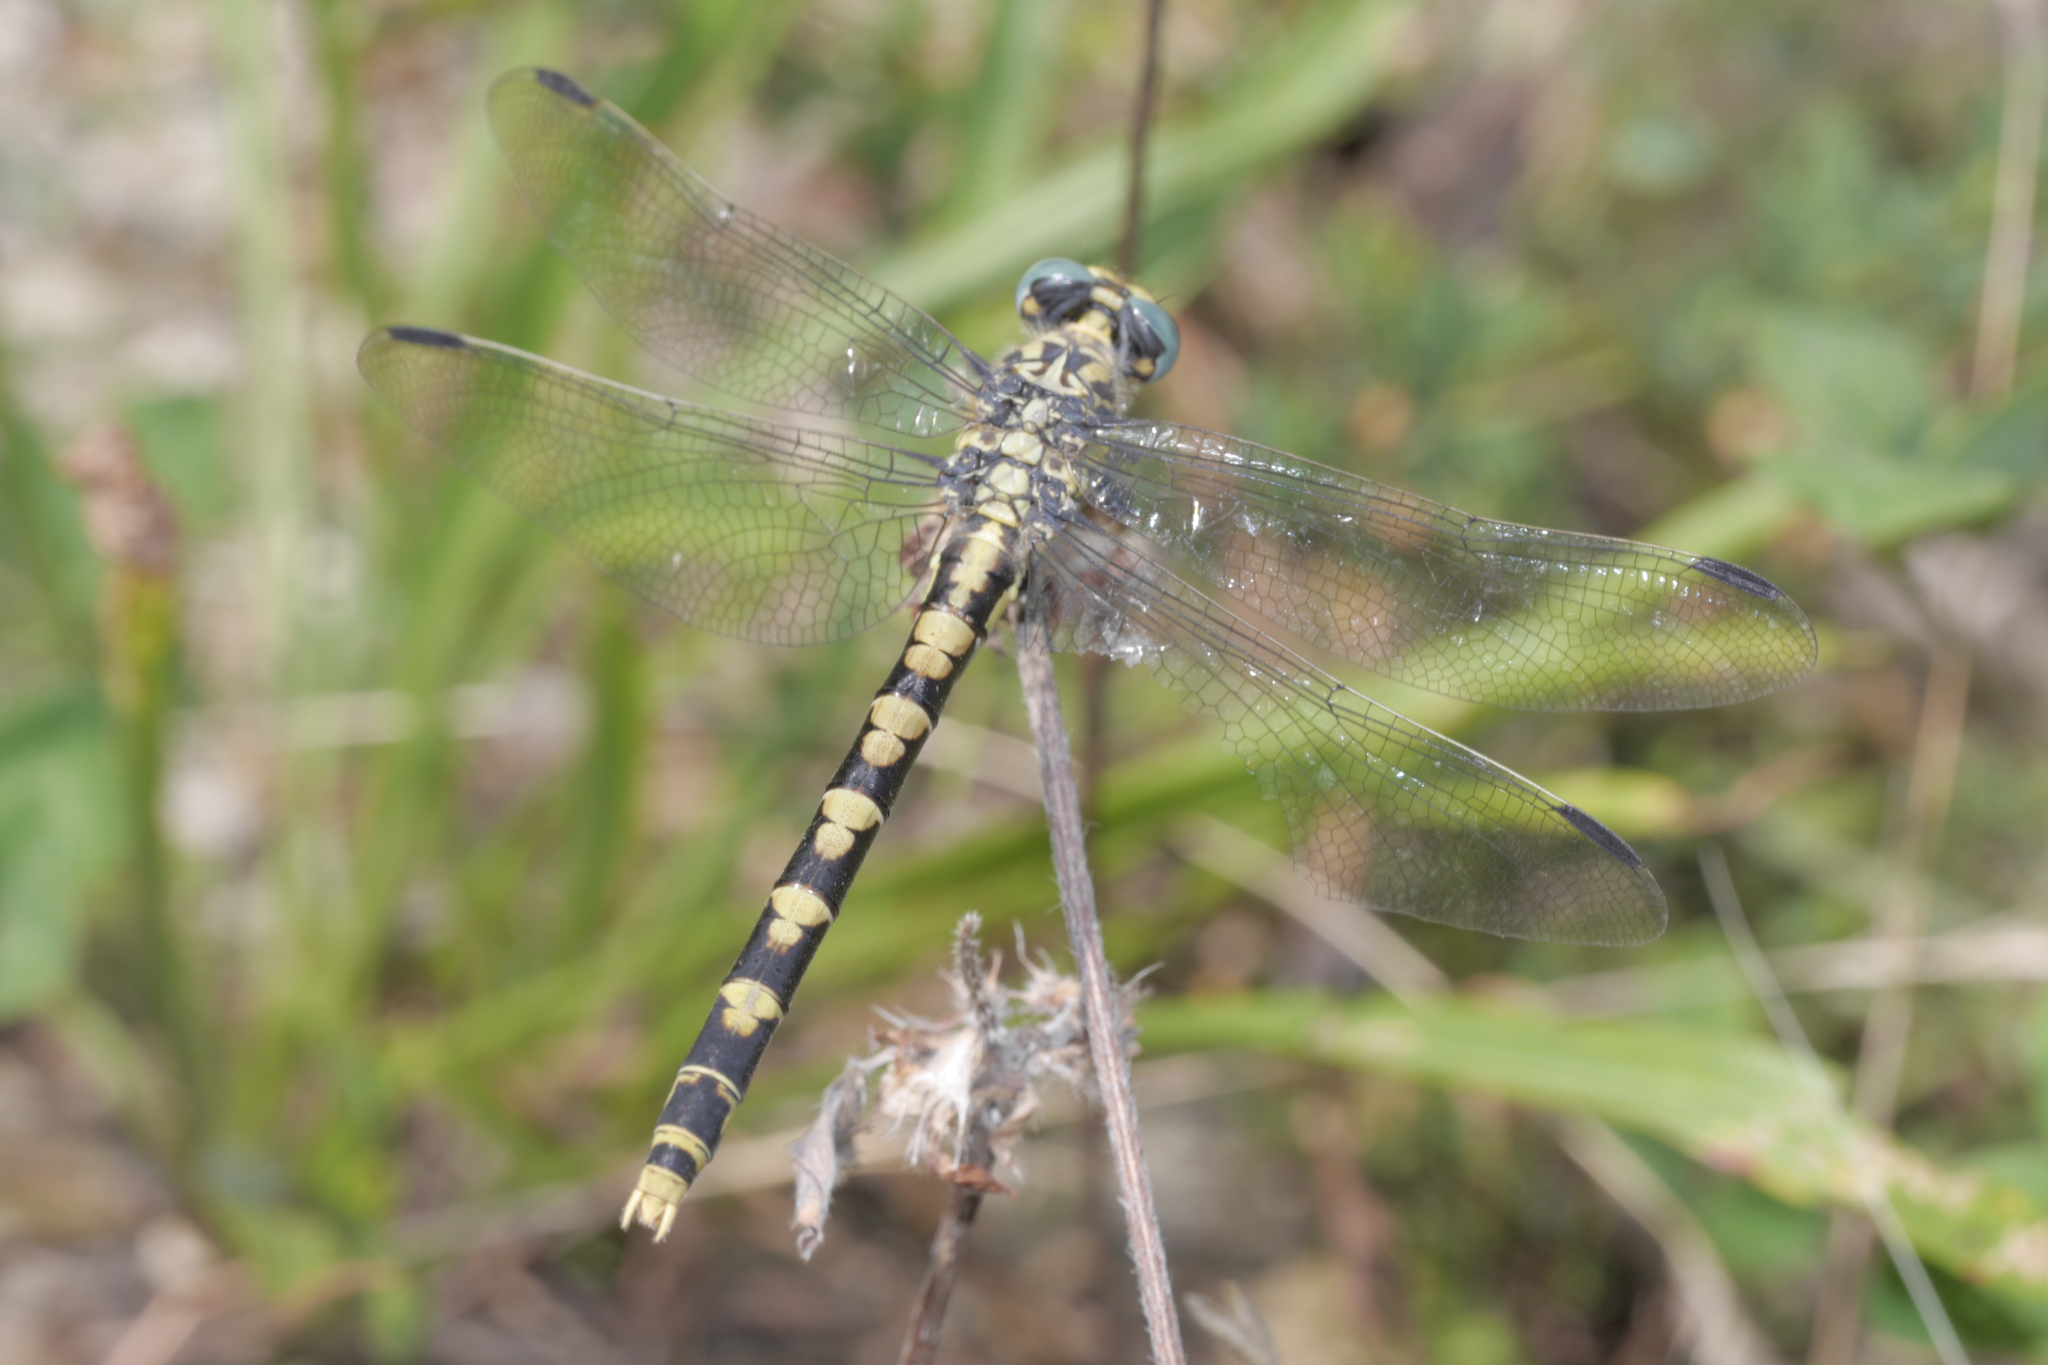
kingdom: Animalia
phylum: Arthropoda
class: Insecta
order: Odonata
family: Gomphidae
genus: Onychogomphus
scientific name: Onychogomphus uncatus
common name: Large pincertail
